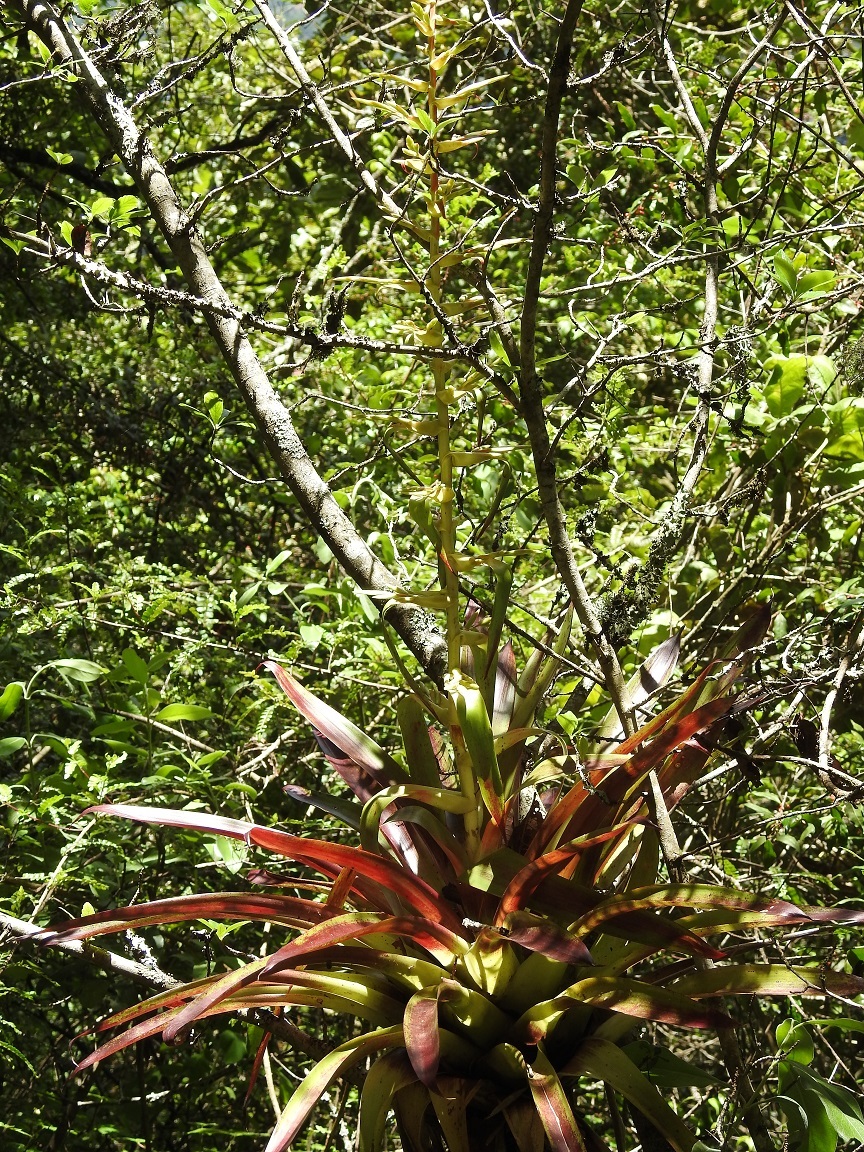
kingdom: Plantae
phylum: Tracheophyta
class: Liliopsida
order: Poales
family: Bromeliaceae
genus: Tillandsia
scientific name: Tillandsia guatemalensis
